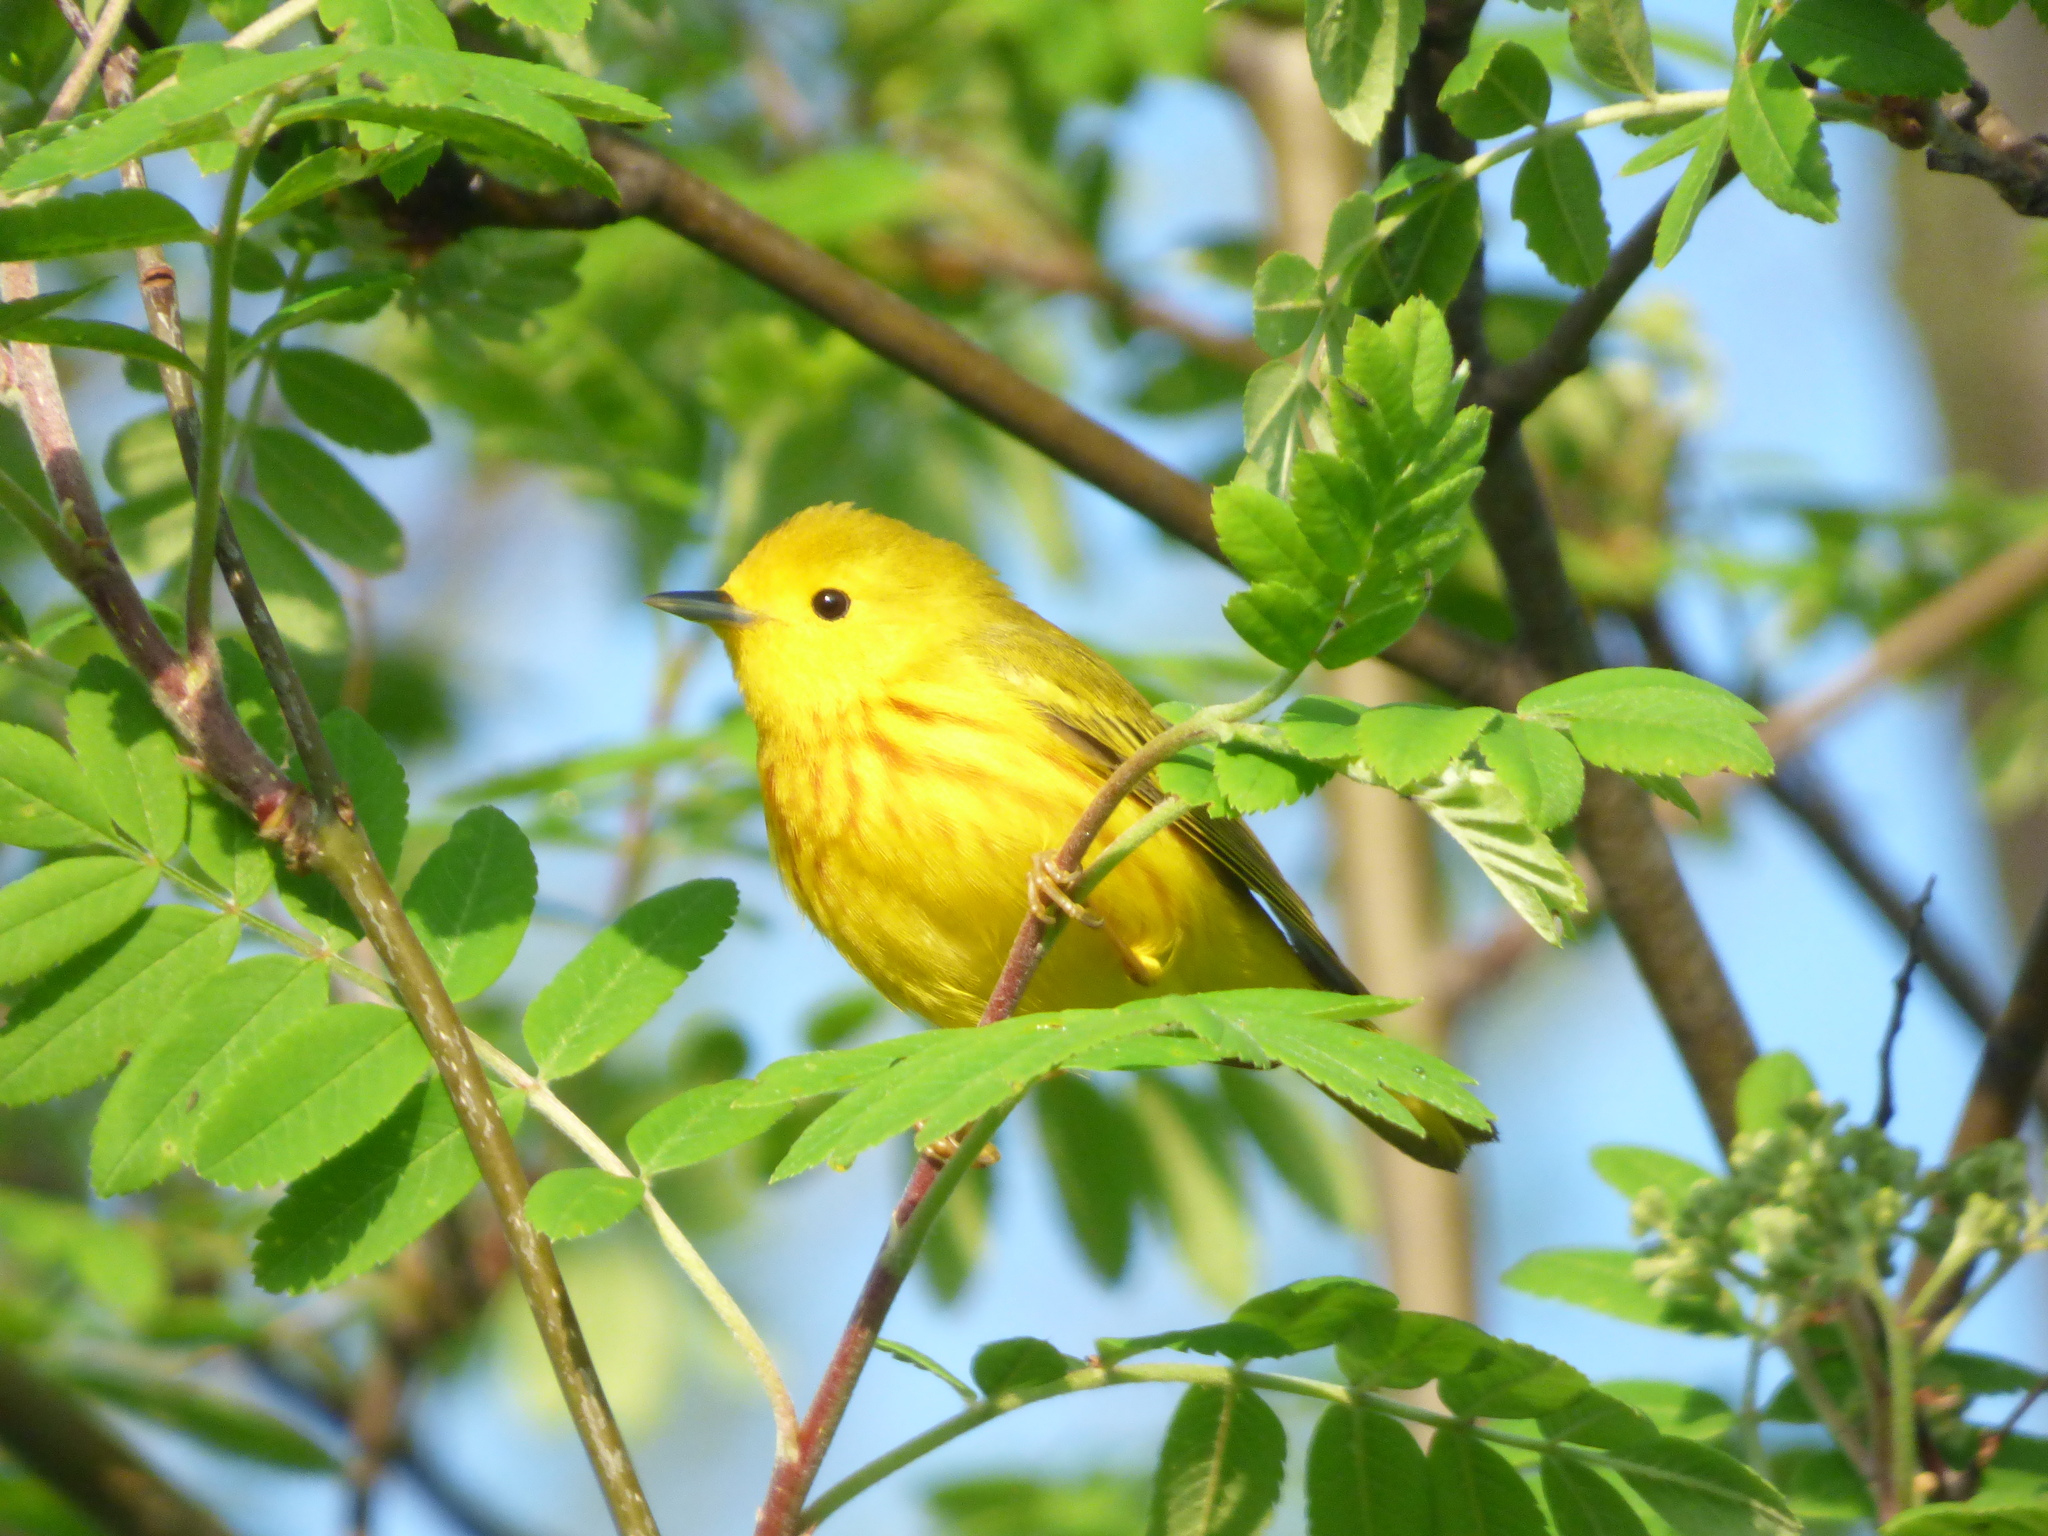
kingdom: Animalia
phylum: Chordata
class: Aves
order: Passeriformes
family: Parulidae
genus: Setophaga
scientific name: Setophaga petechia
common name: Yellow warbler
